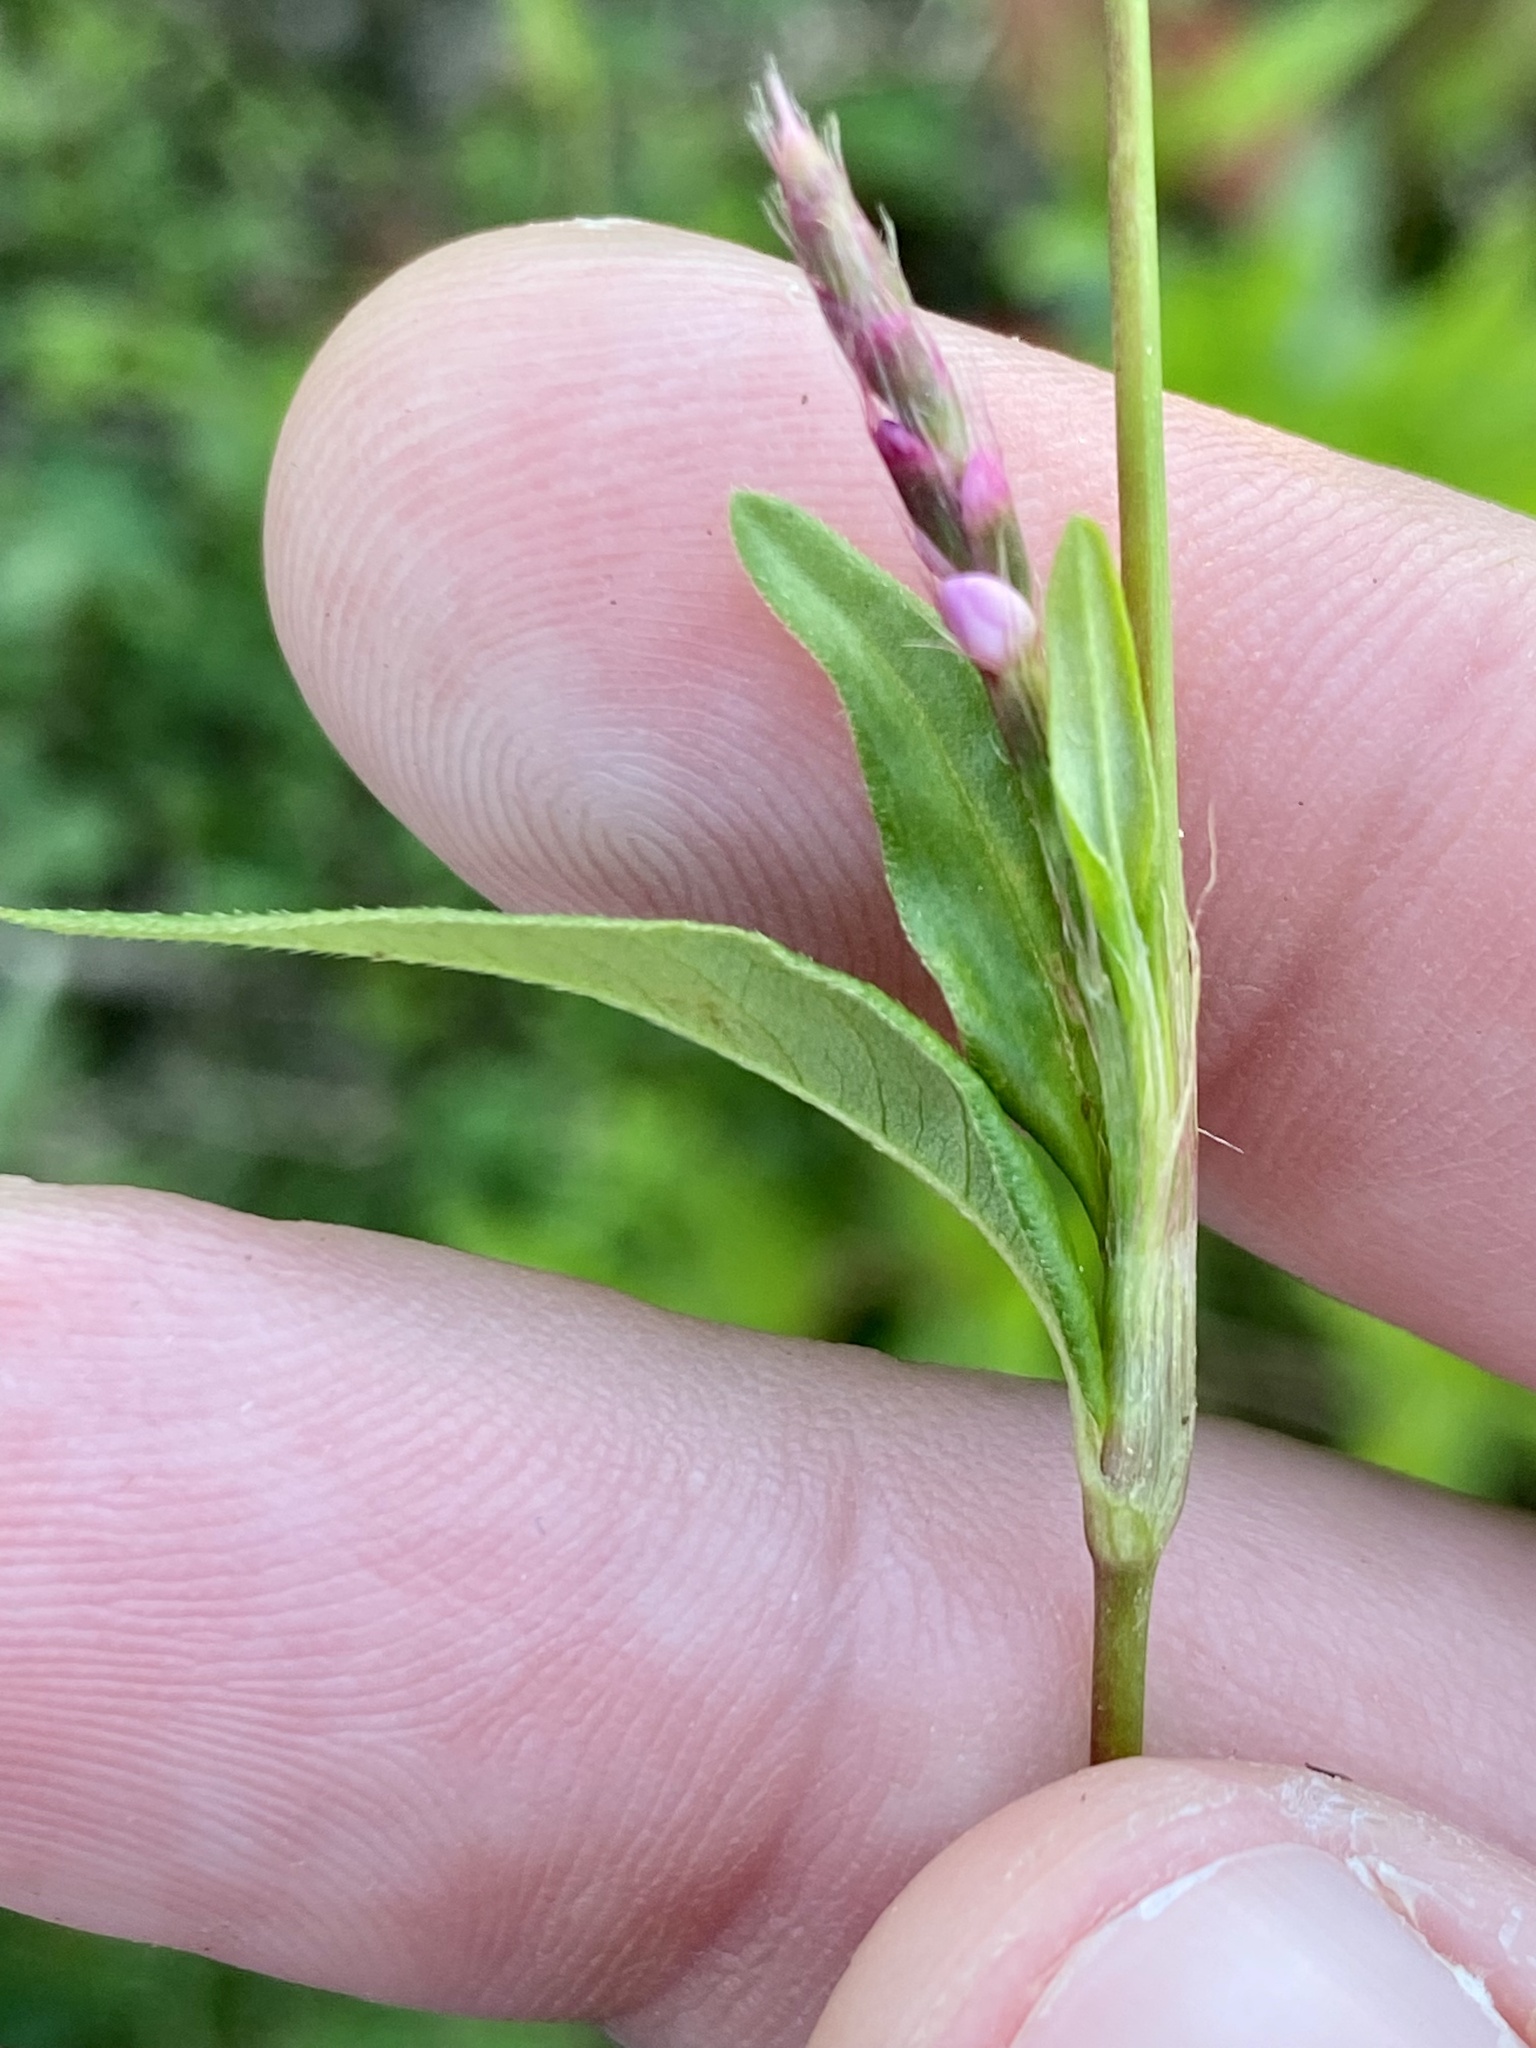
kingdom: Plantae
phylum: Tracheophyta
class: Magnoliopsida
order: Caryophyllales
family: Polygonaceae
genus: Persicaria
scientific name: Persicaria longiseta
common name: Bristly lady's-thumb
